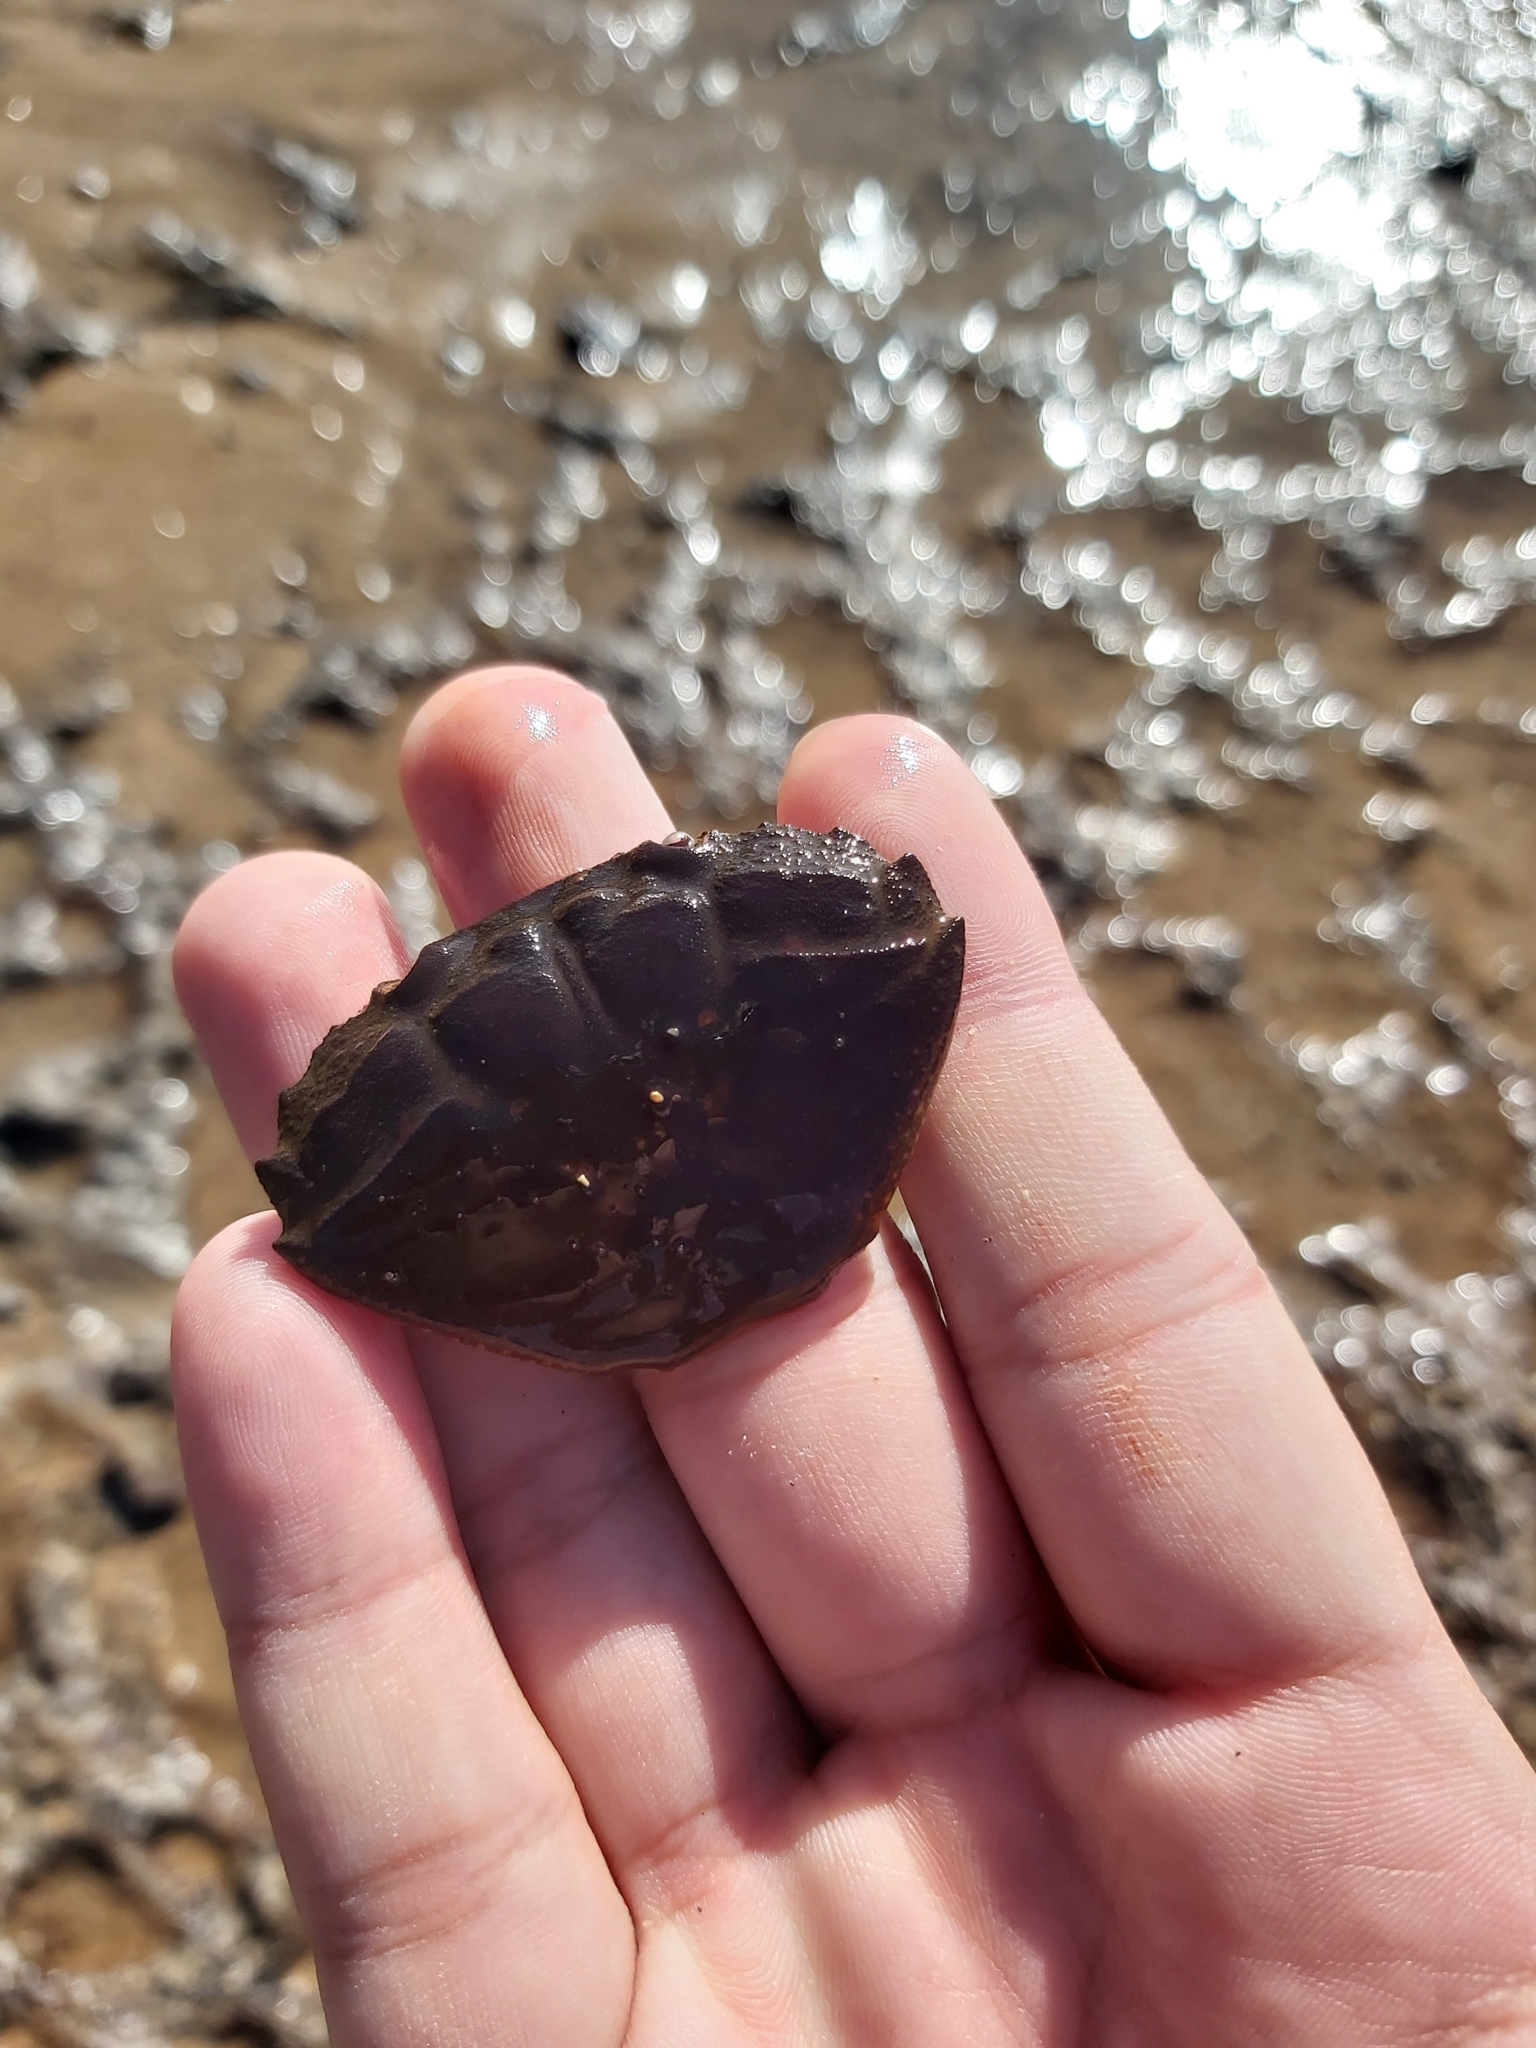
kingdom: Animalia
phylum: Arthropoda
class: Malacostraca
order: Decapoda
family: Oziidae
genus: Ozius
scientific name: Ozius truncatus
